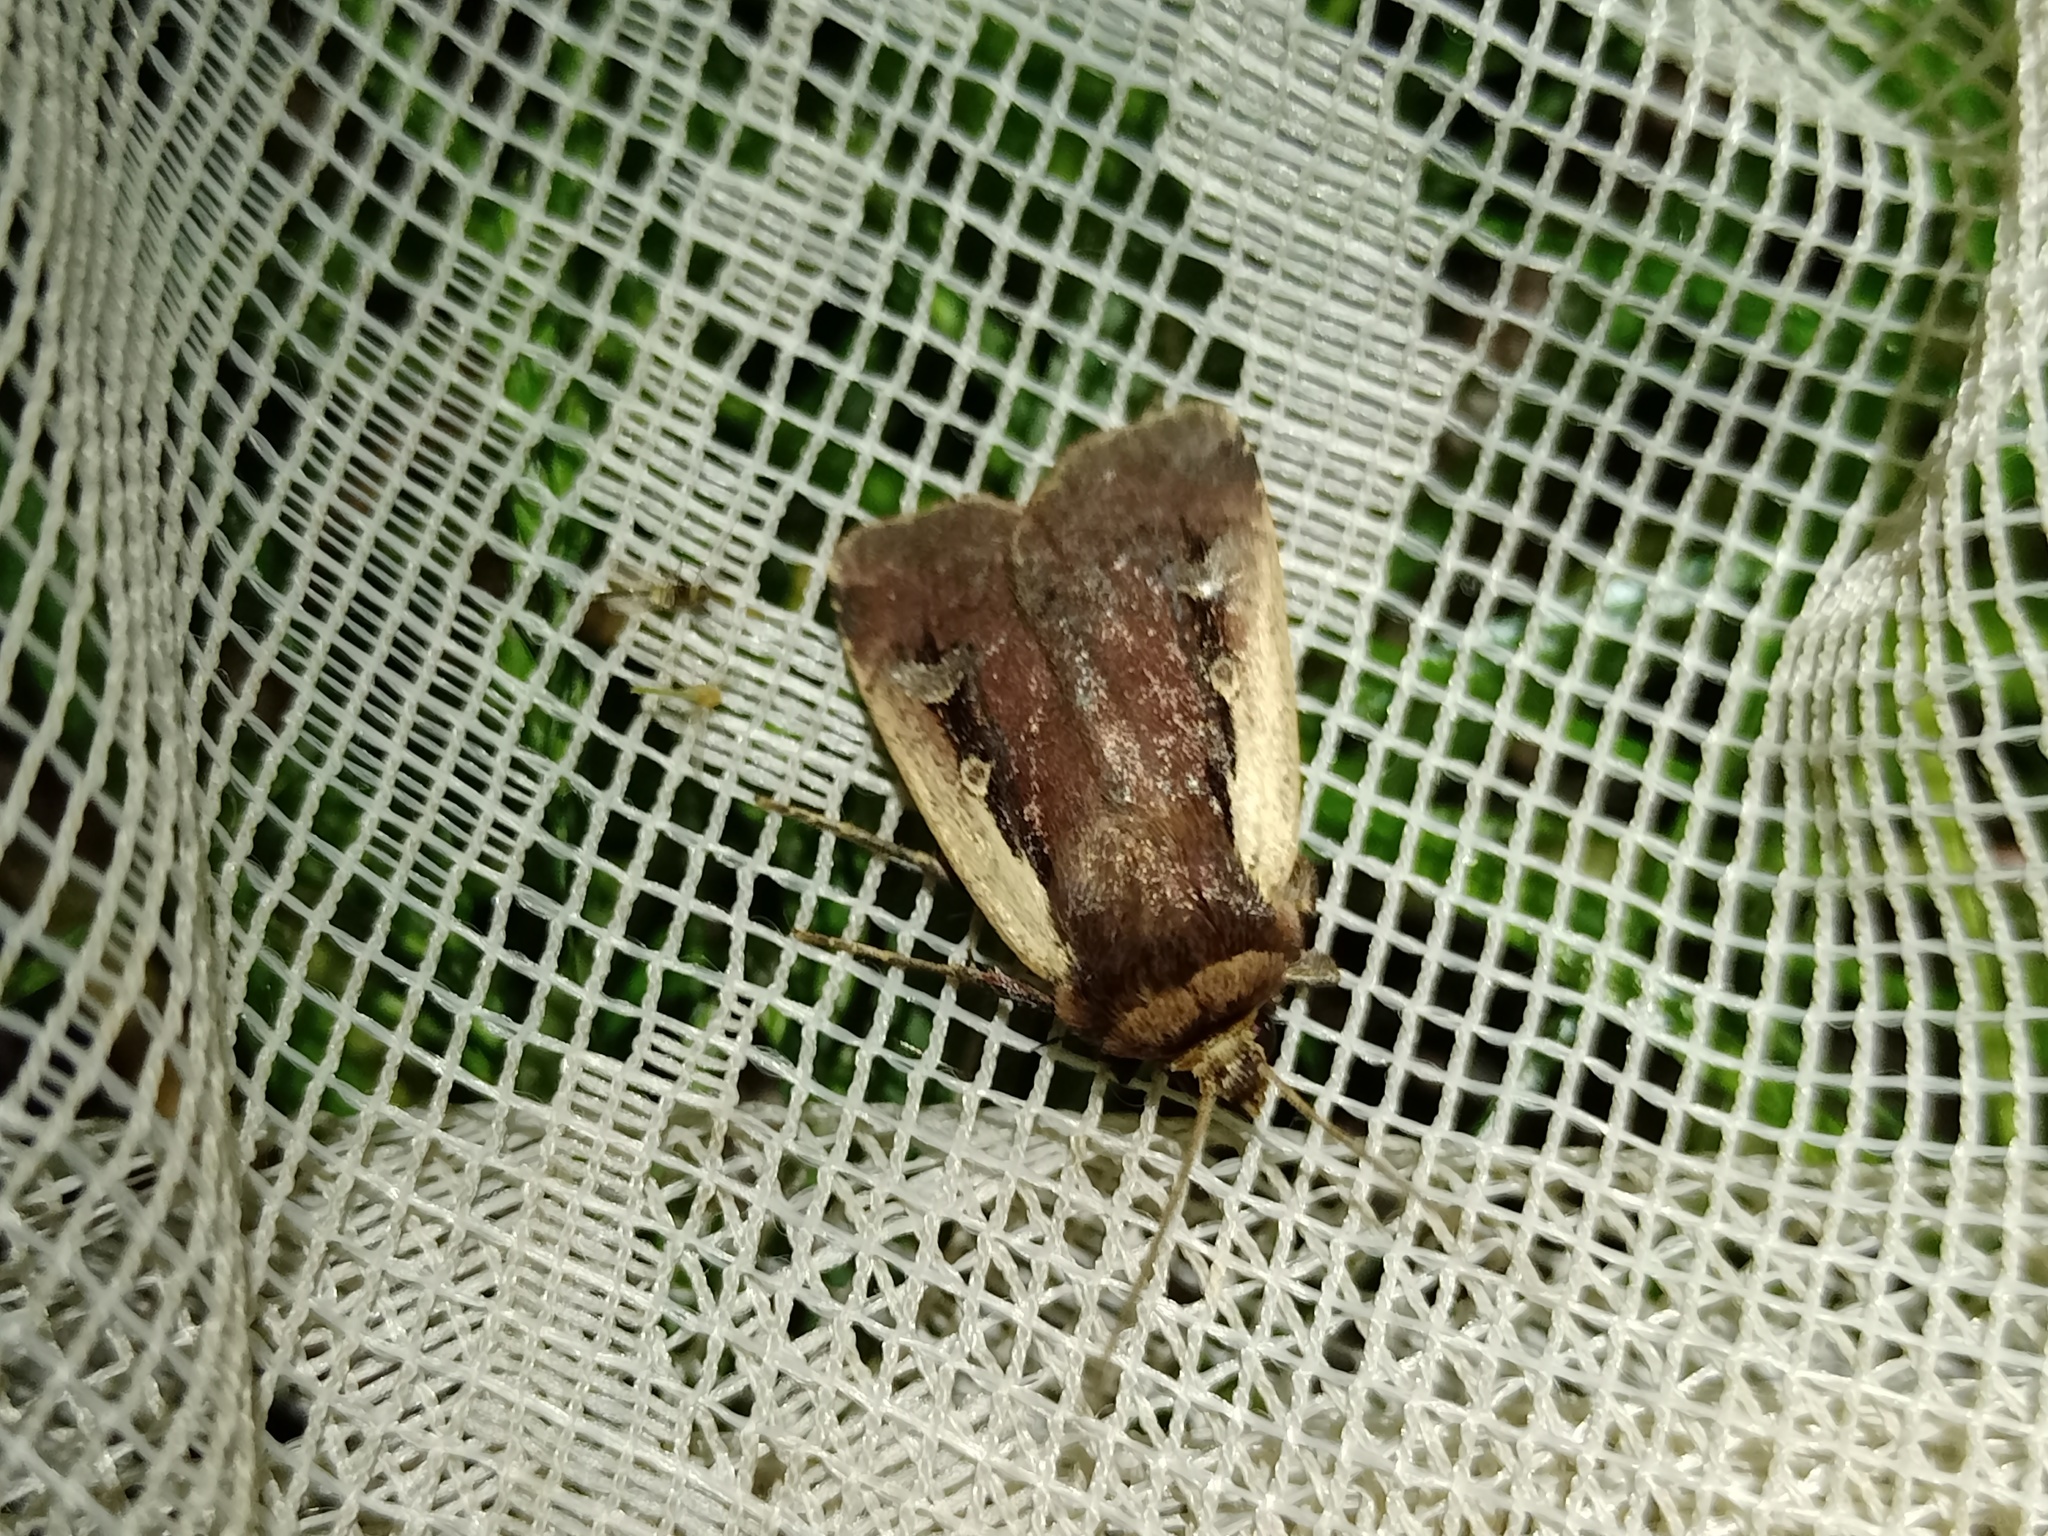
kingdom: Animalia
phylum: Arthropoda
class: Insecta
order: Lepidoptera
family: Noctuidae
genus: Ochropleura
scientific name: Ochropleura plecta
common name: Flame shoulder
